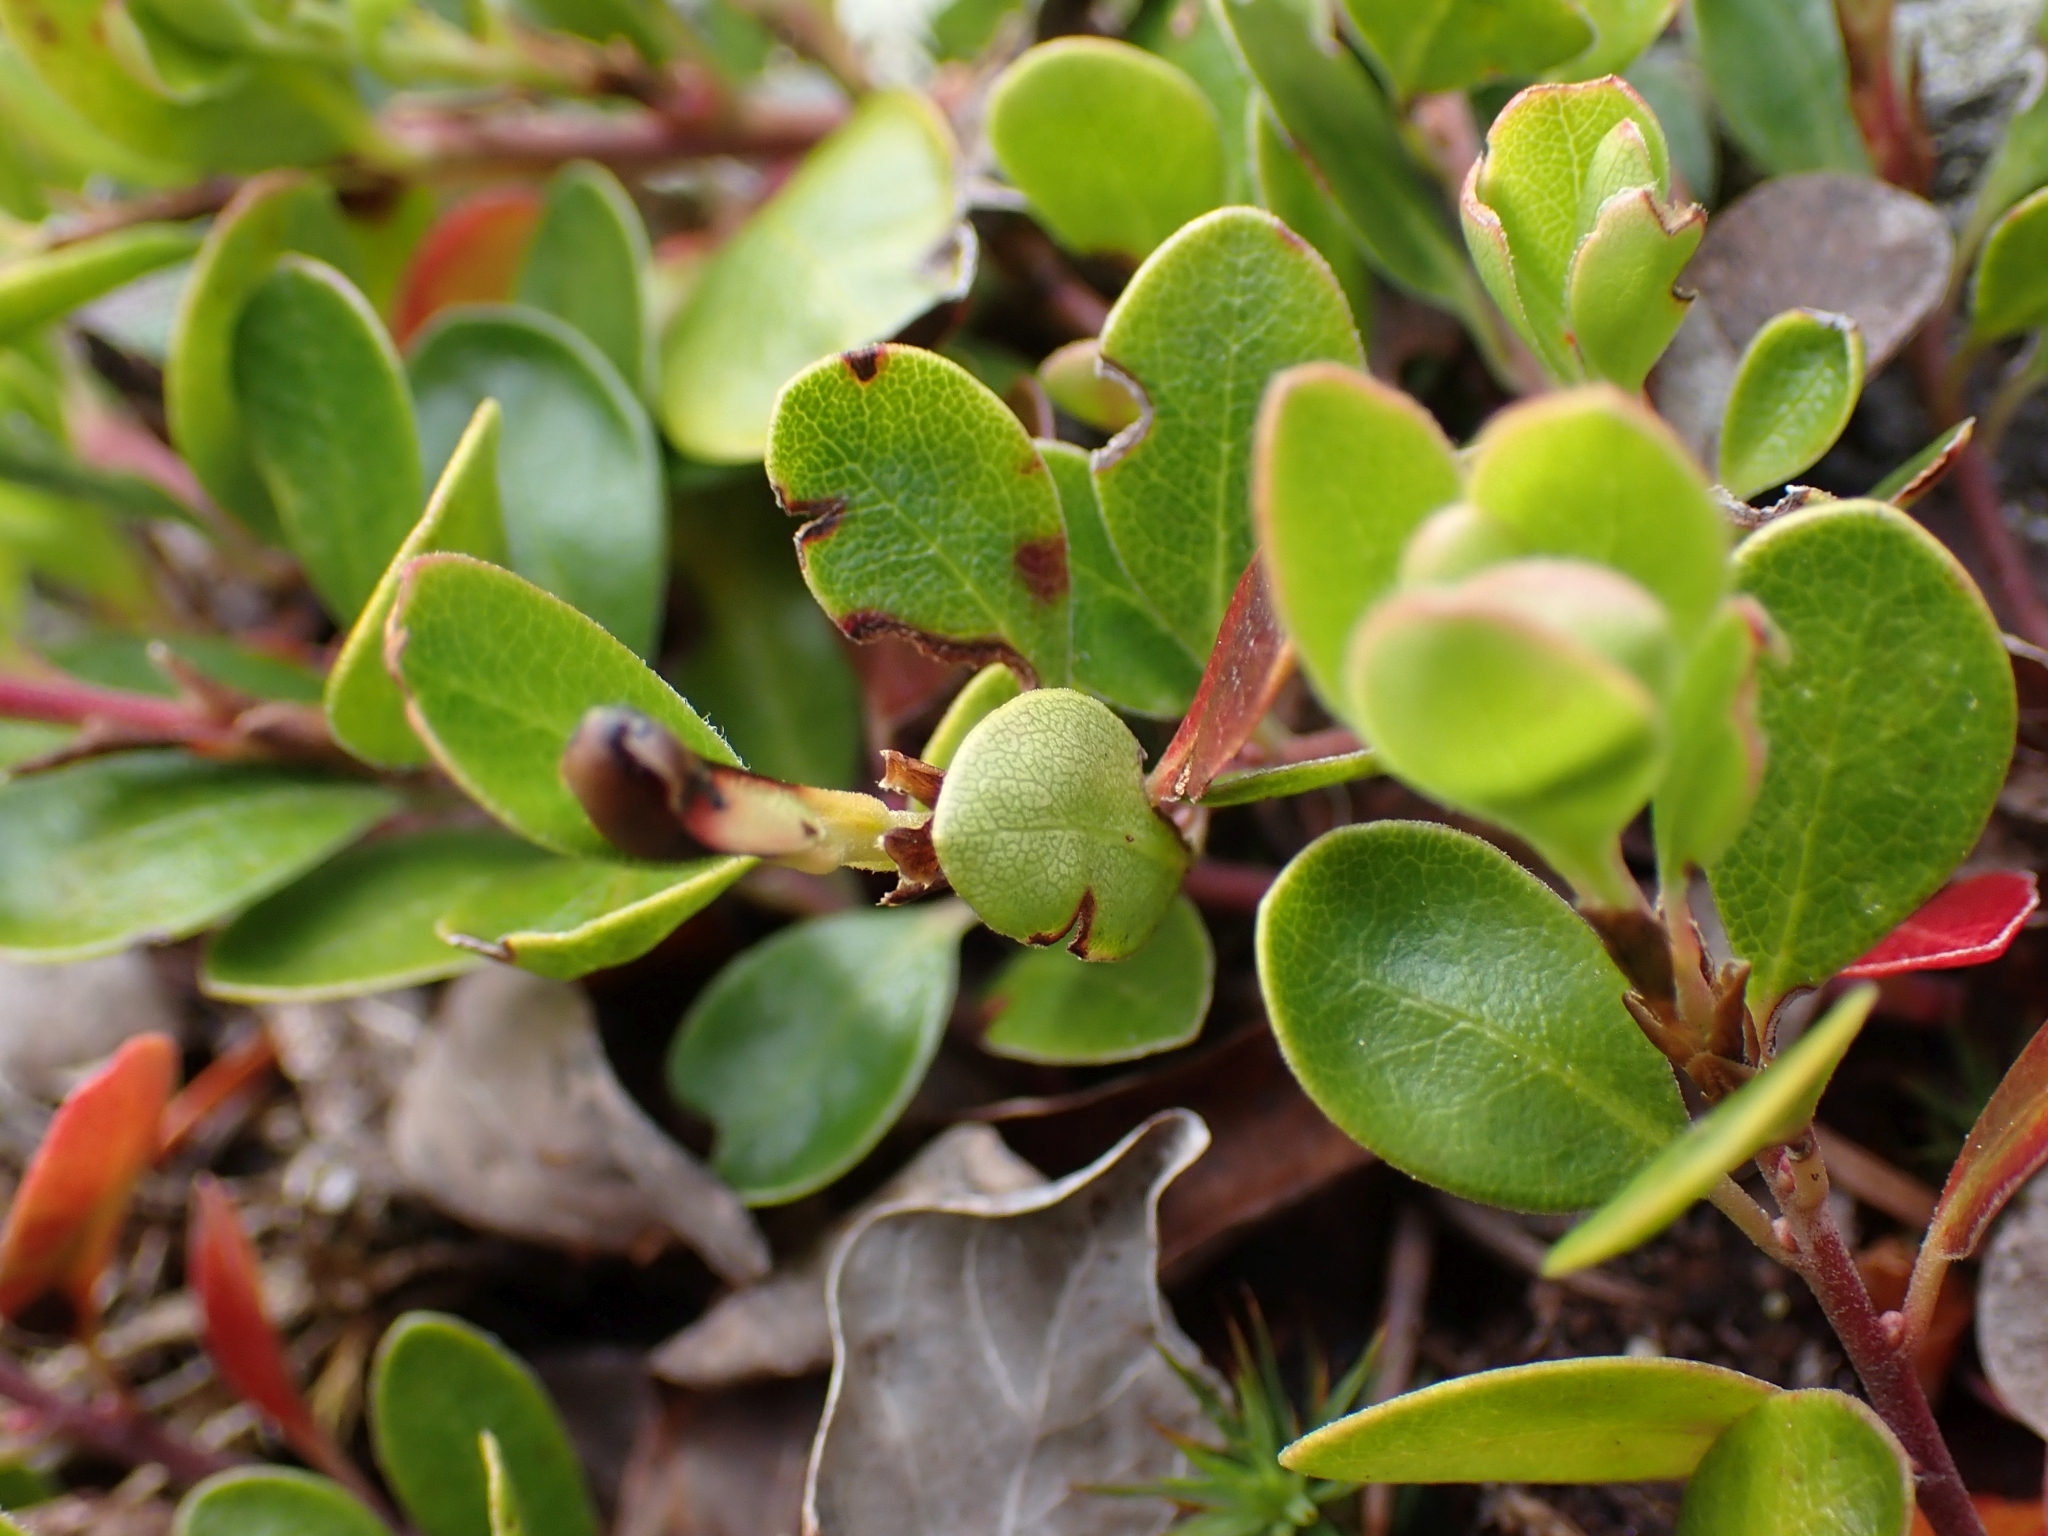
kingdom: Plantae
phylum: Tracheophyta
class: Magnoliopsida
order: Ericales
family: Ericaceae
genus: Arctostaphylos
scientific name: Arctostaphylos uva-ursi
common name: Bearberry
